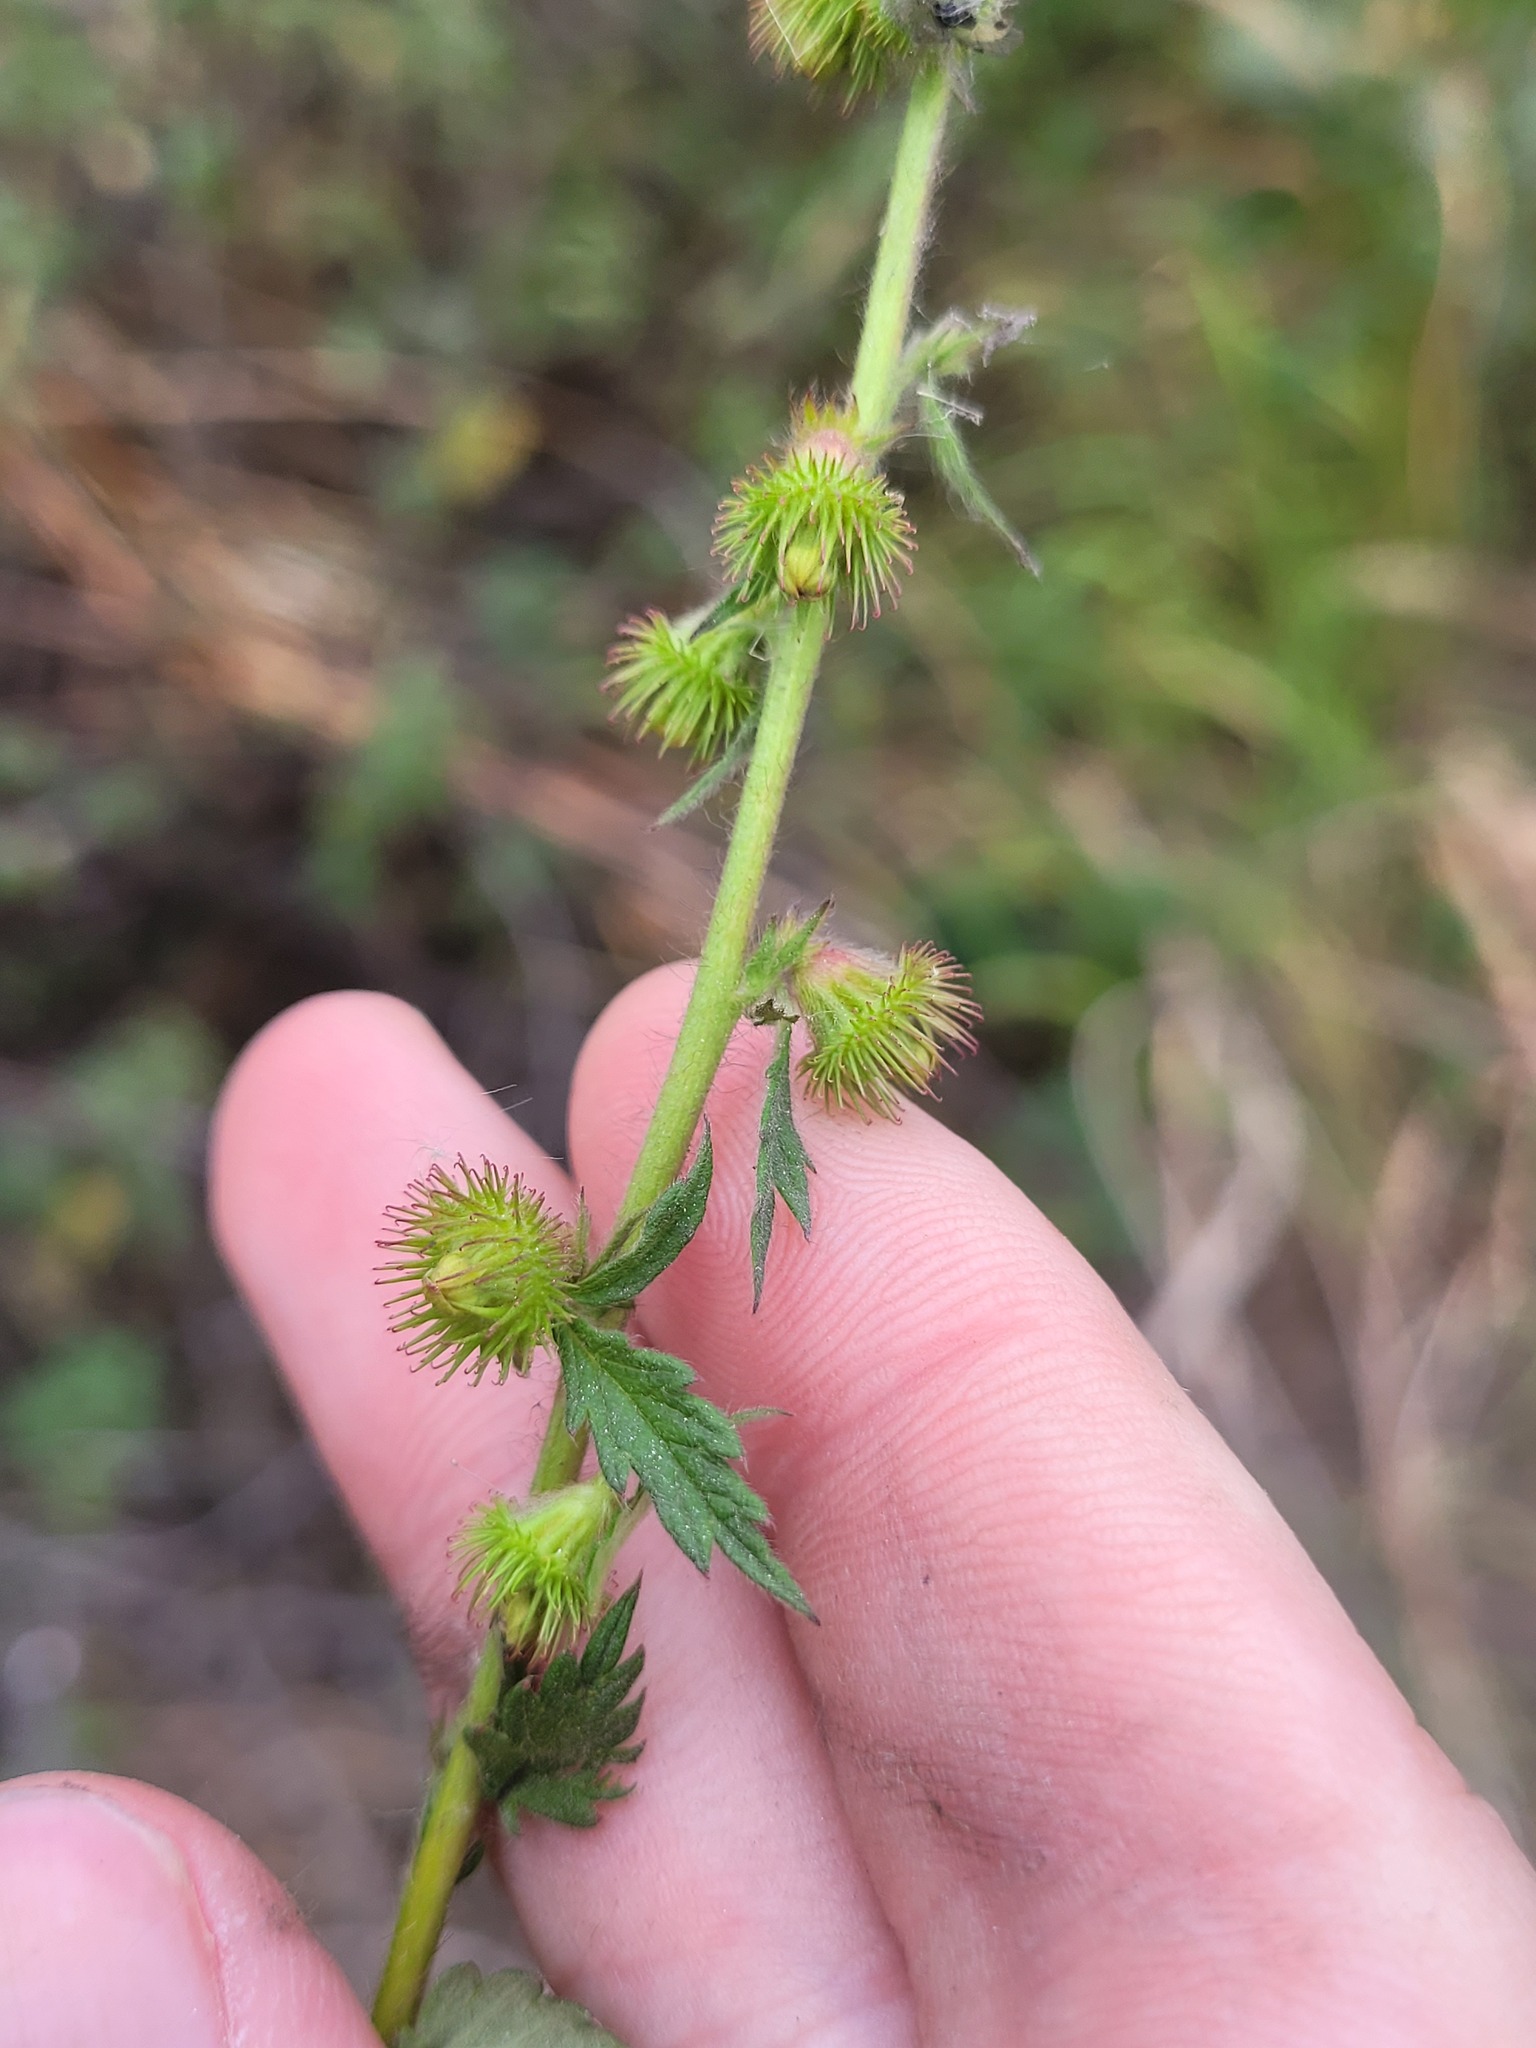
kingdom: Plantae
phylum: Tracheophyta
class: Magnoliopsida
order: Rosales
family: Rosaceae
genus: Agrimonia
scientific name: Agrimonia eupatoria
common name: Agrimony
